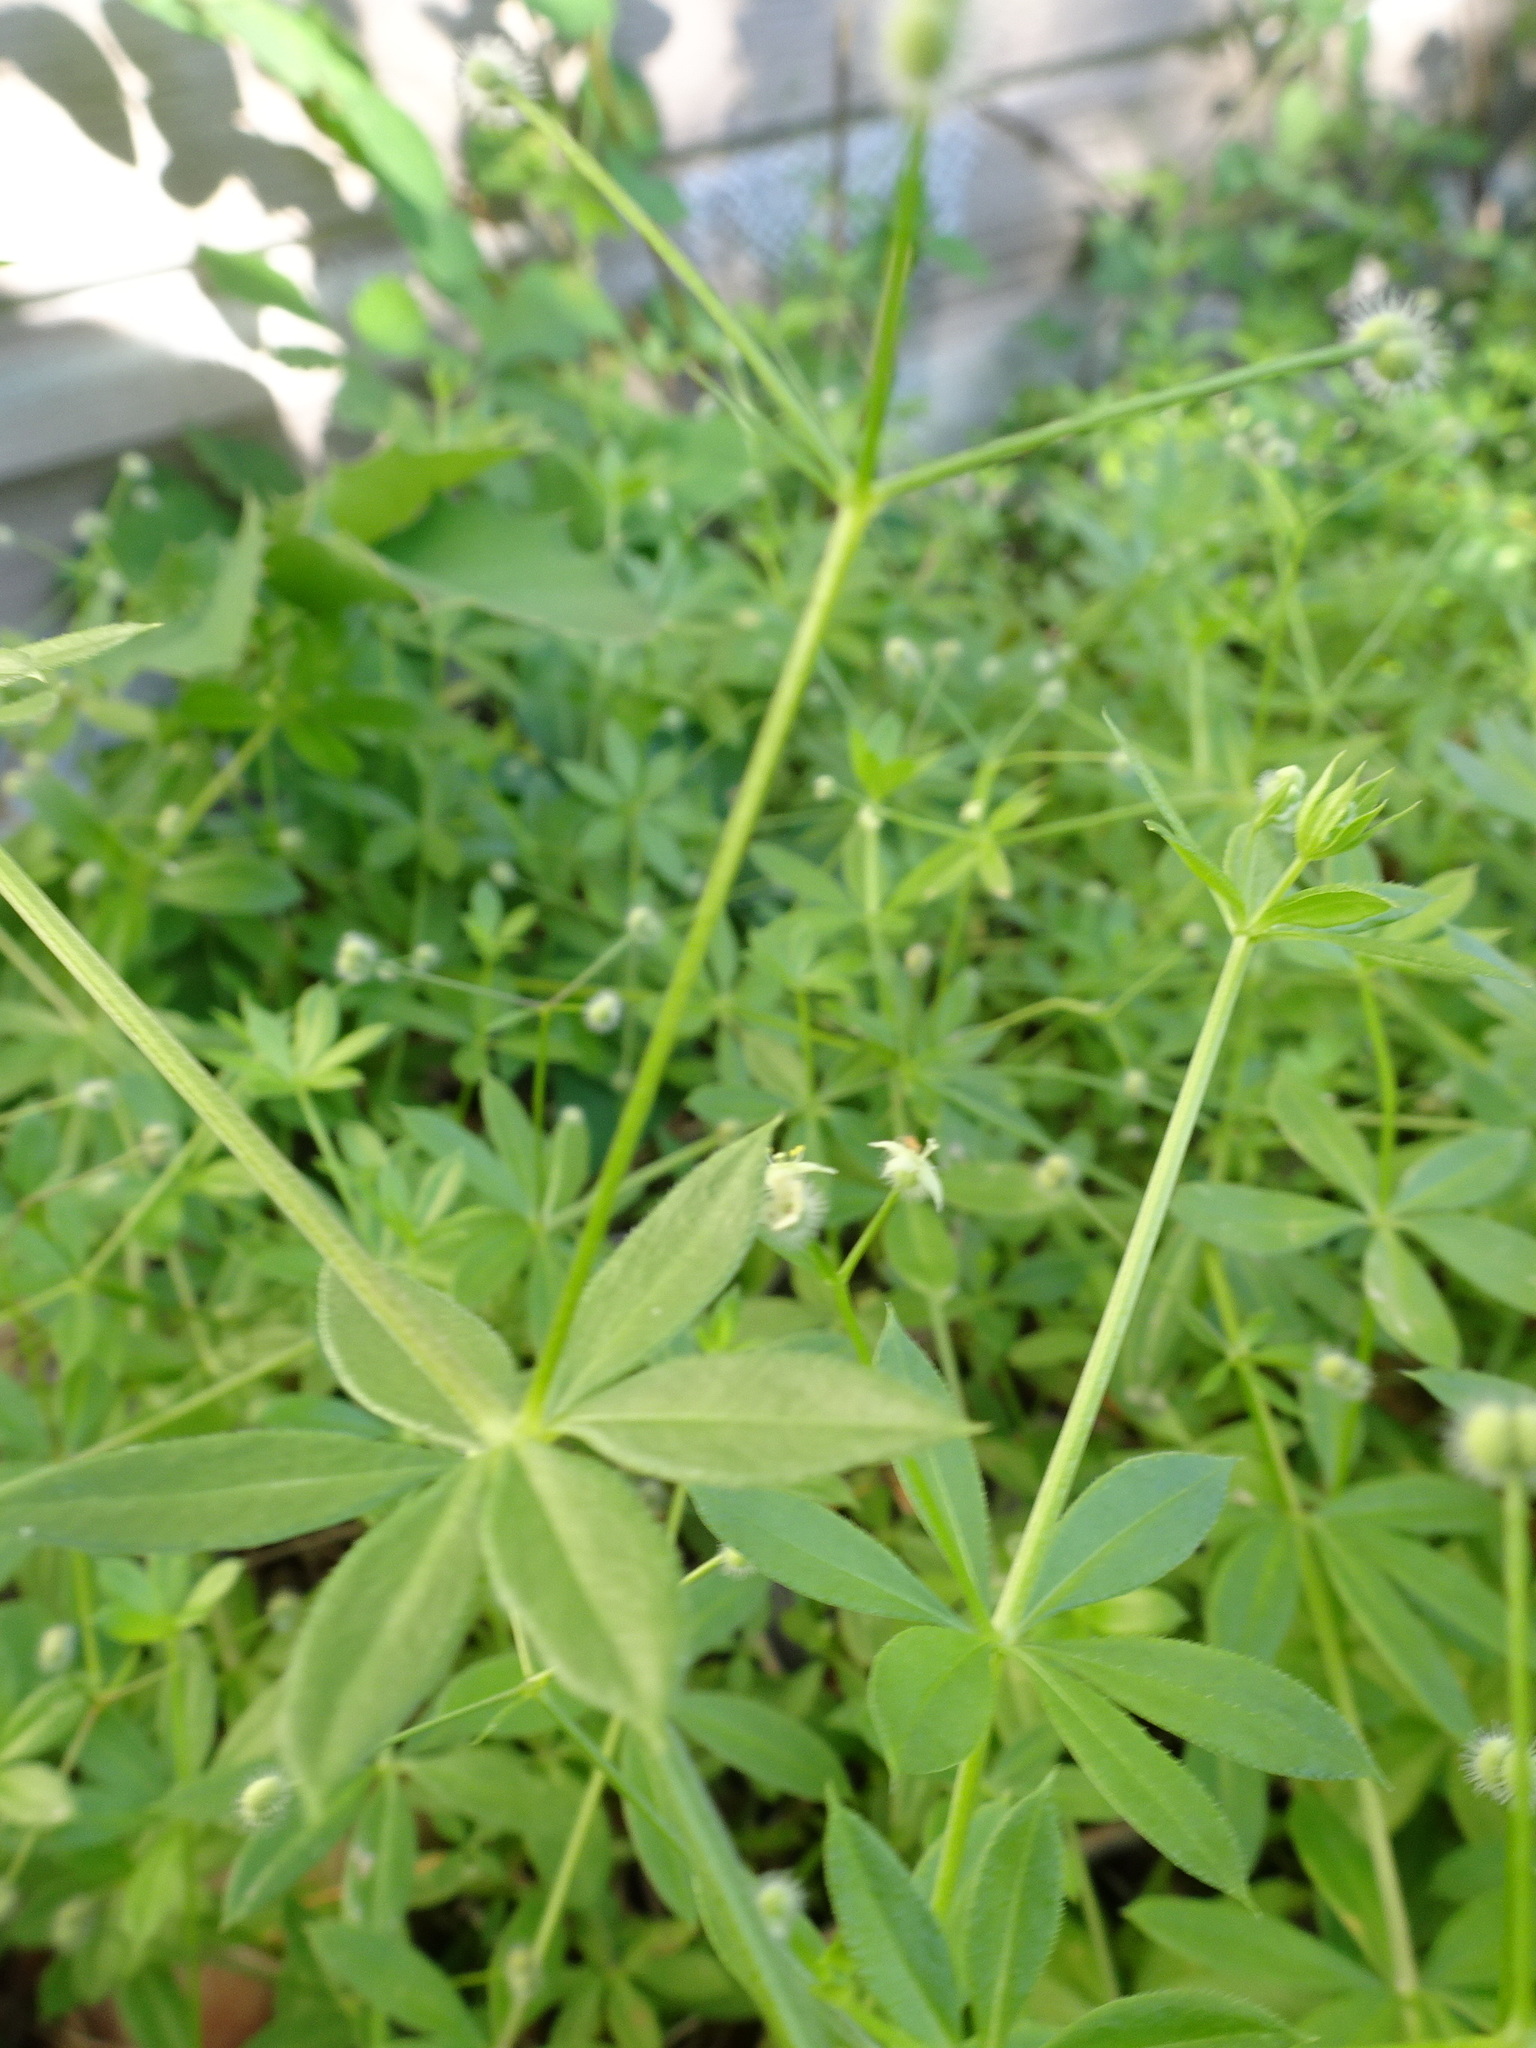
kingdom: Plantae
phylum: Tracheophyta
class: Magnoliopsida
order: Gentianales
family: Rubiaceae
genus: Galium
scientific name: Galium aparine
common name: Cleavers
